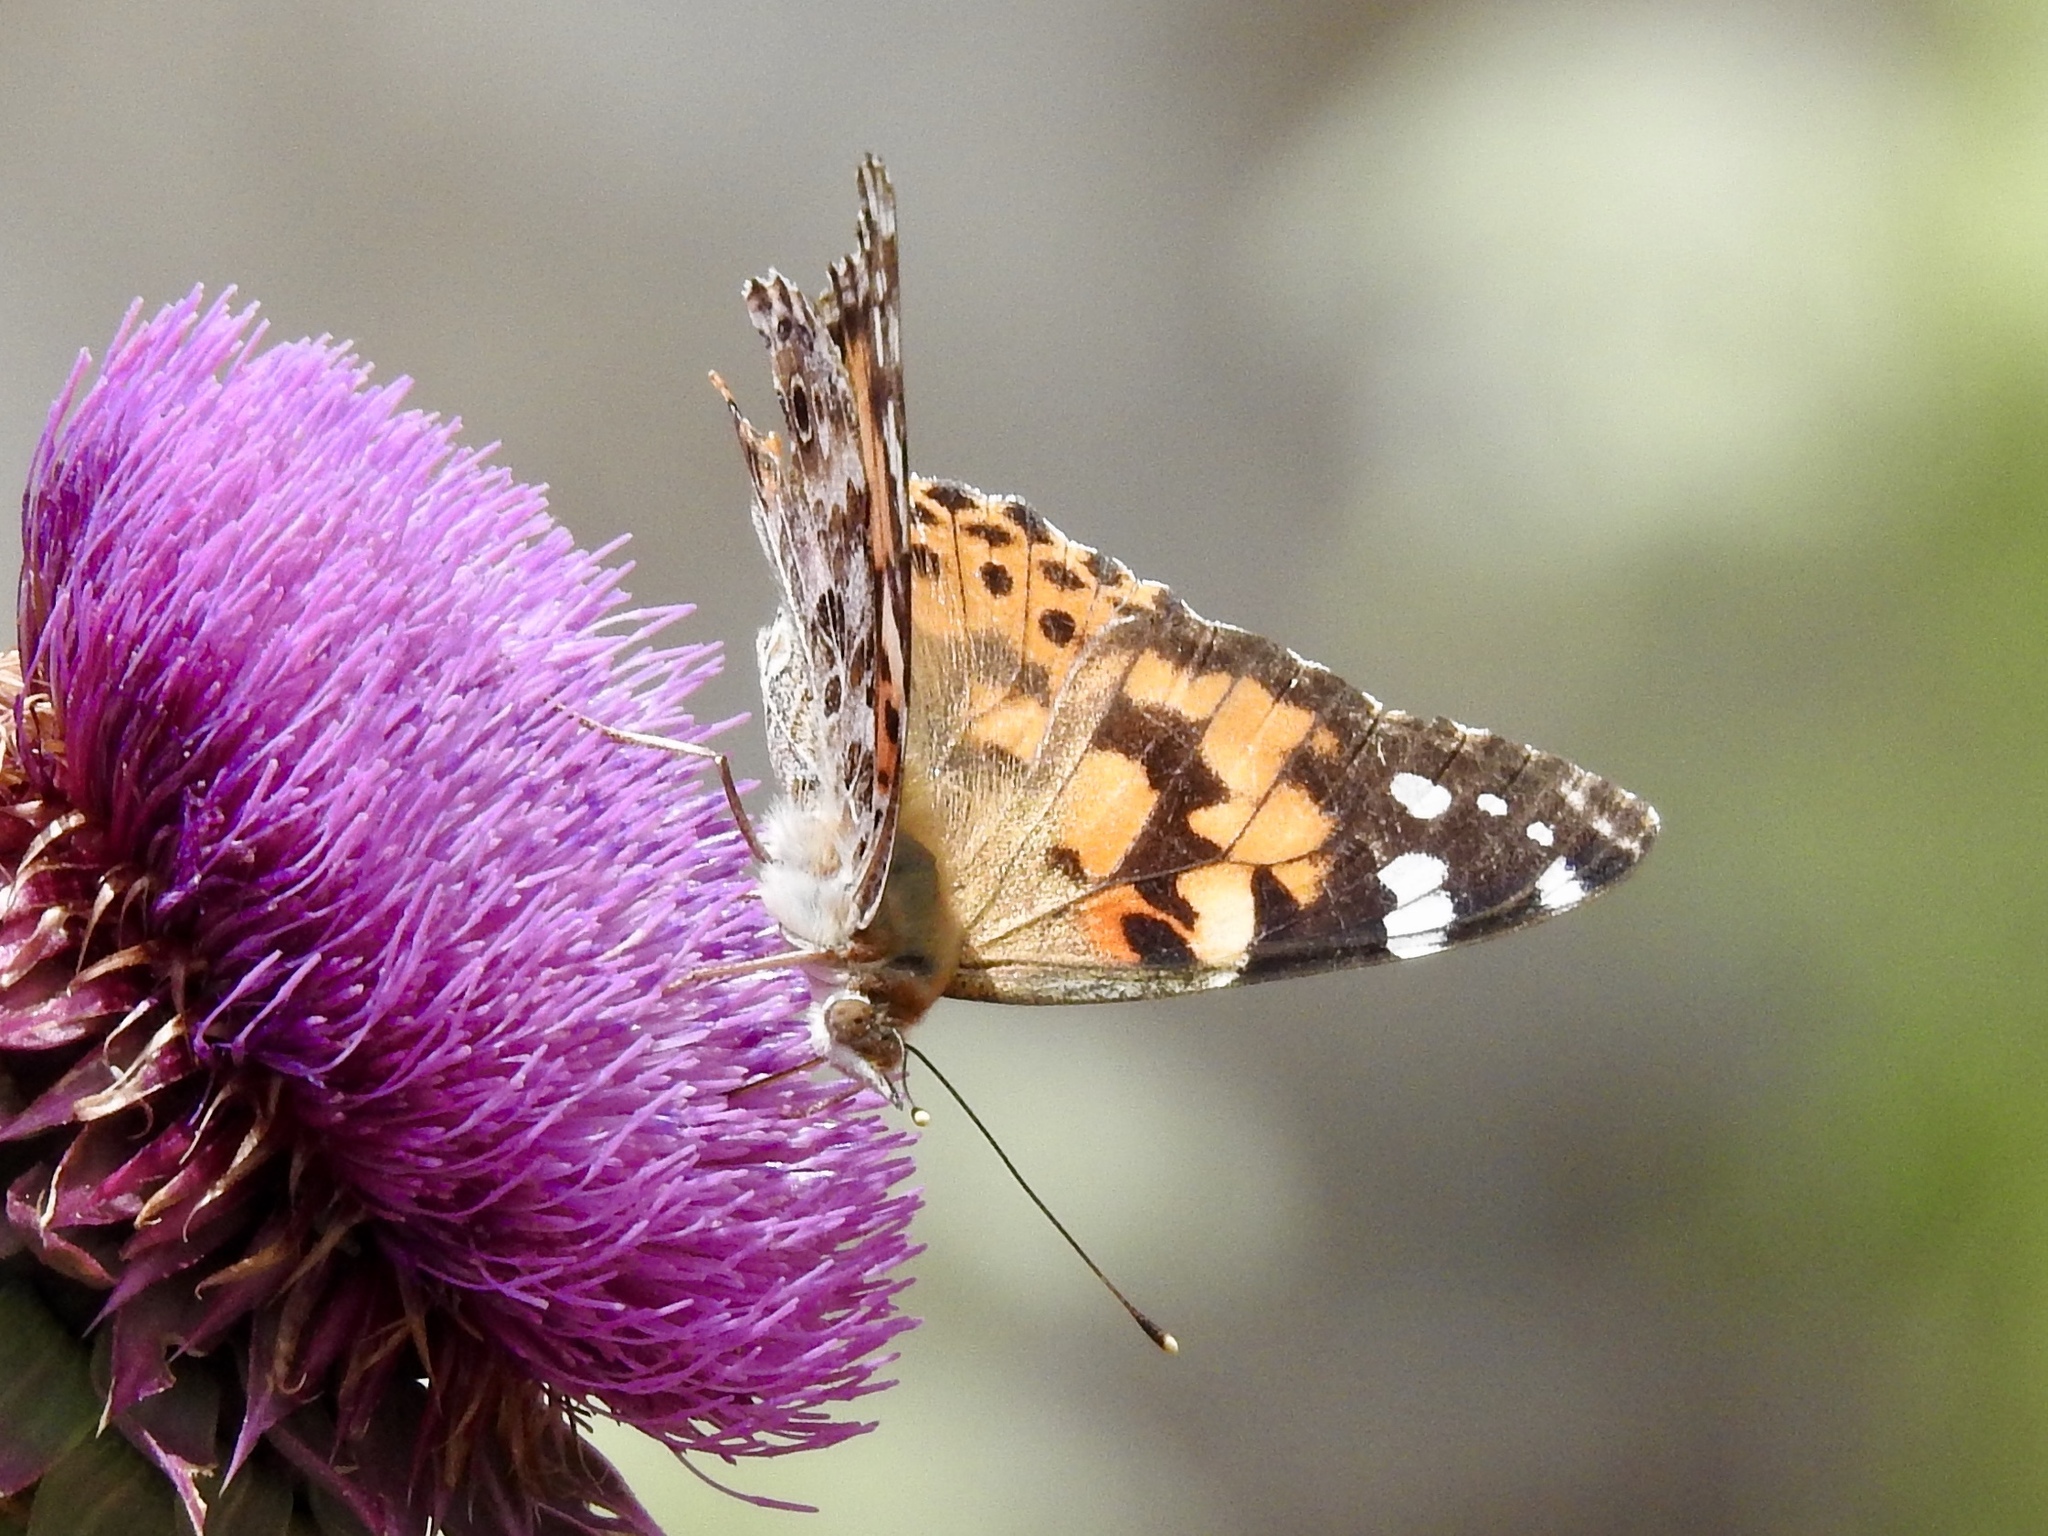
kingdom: Animalia
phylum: Arthropoda
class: Insecta
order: Lepidoptera
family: Nymphalidae
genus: Vanessa
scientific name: Vanessa cardui
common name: Painted lady
